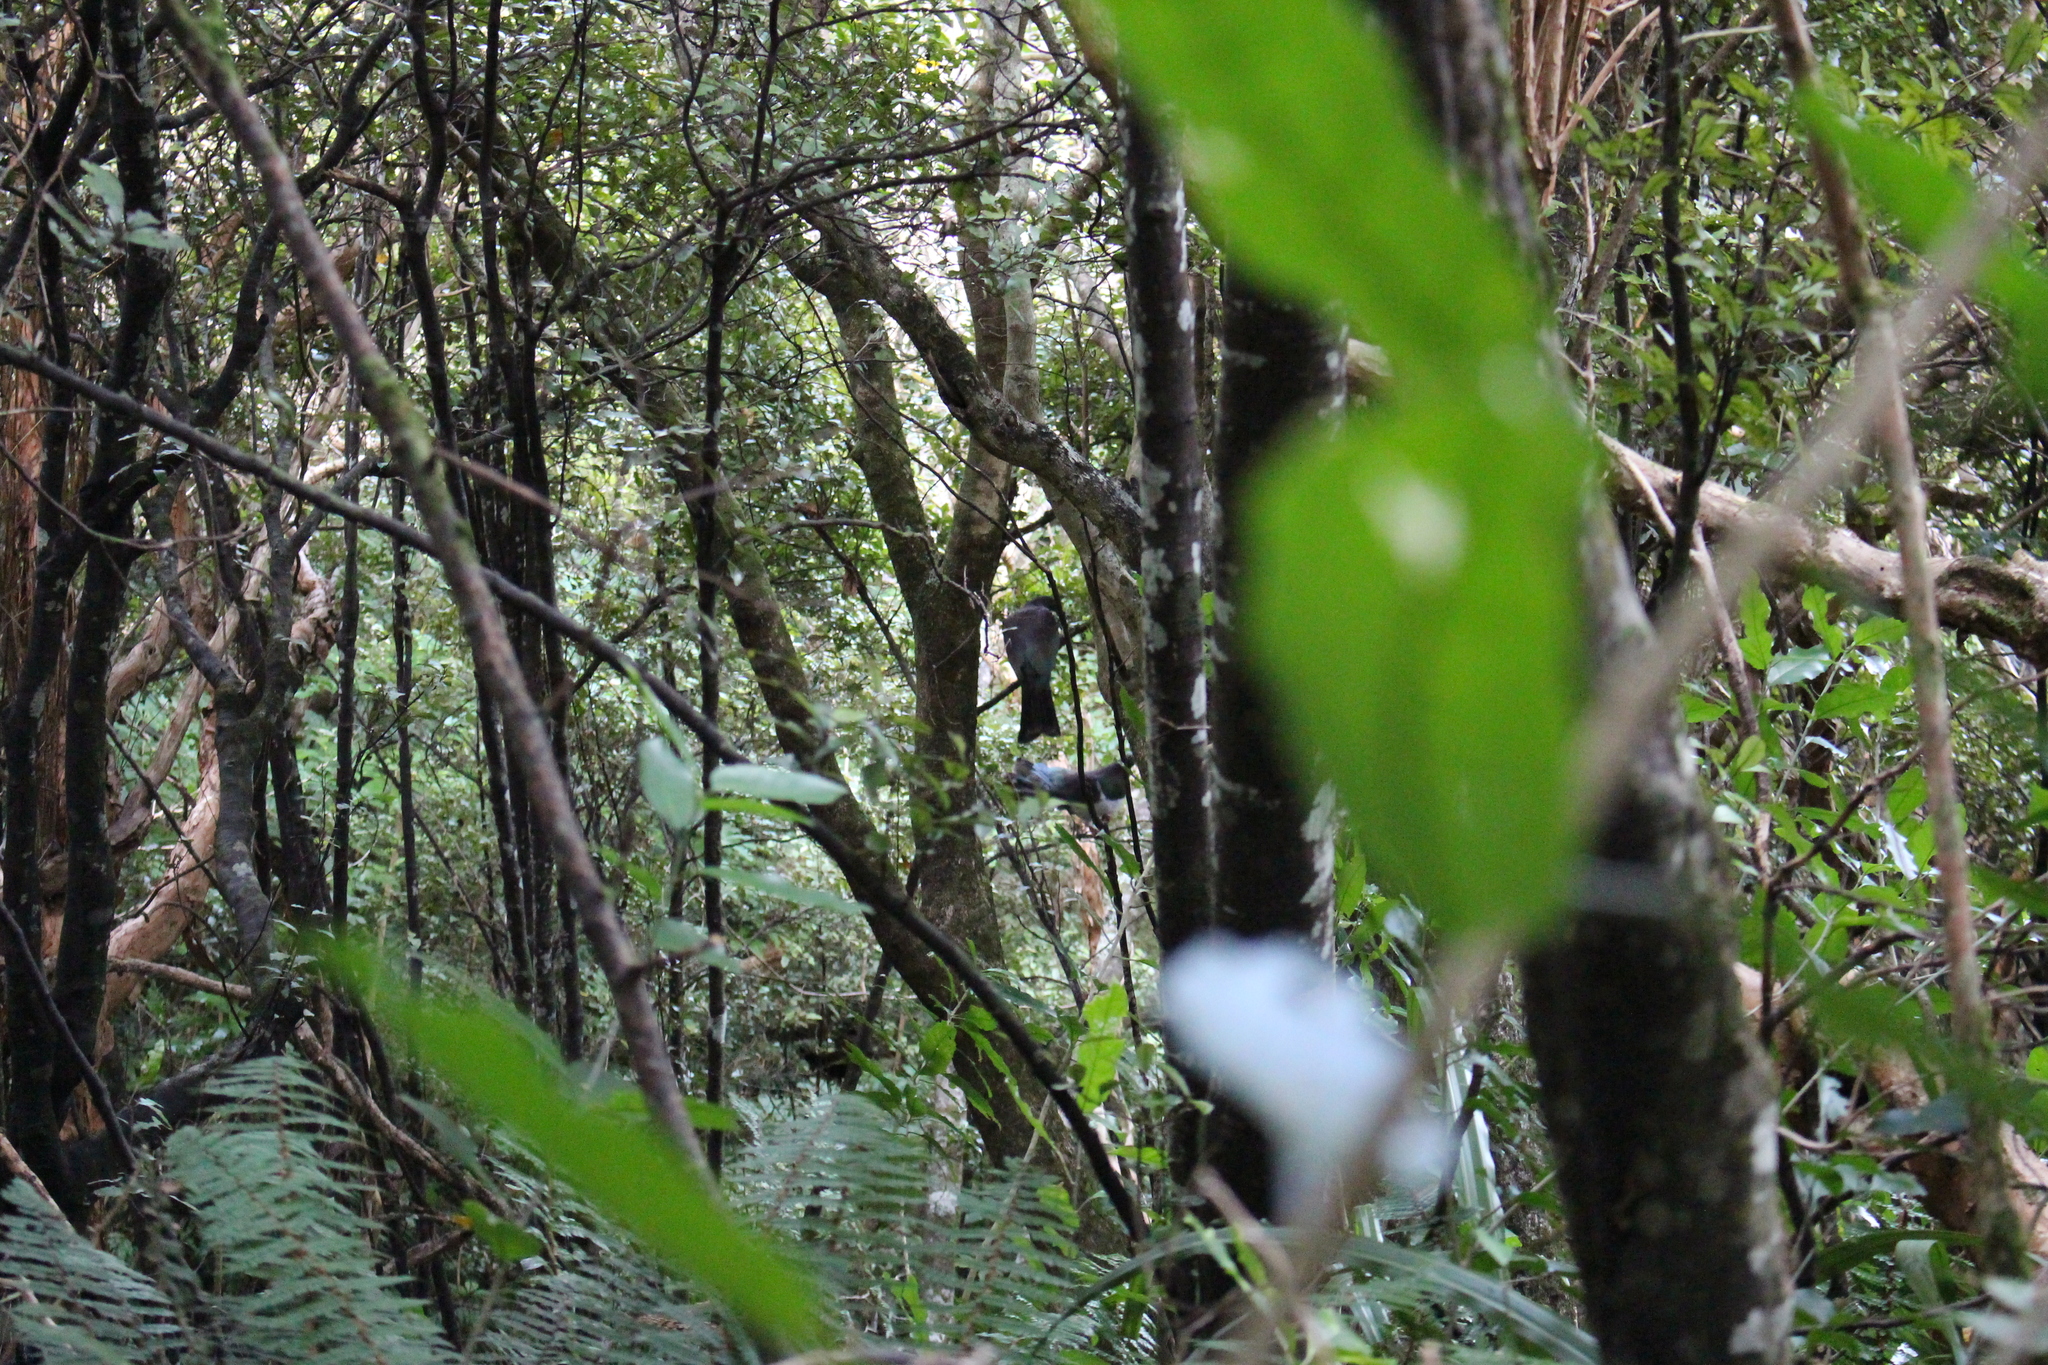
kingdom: Animalia
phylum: Chordata
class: Aves
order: Columbiformes
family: Columbidae
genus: Hemiphaga
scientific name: Hemiphaga novaeseelandiae
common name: New zealand pigeon
